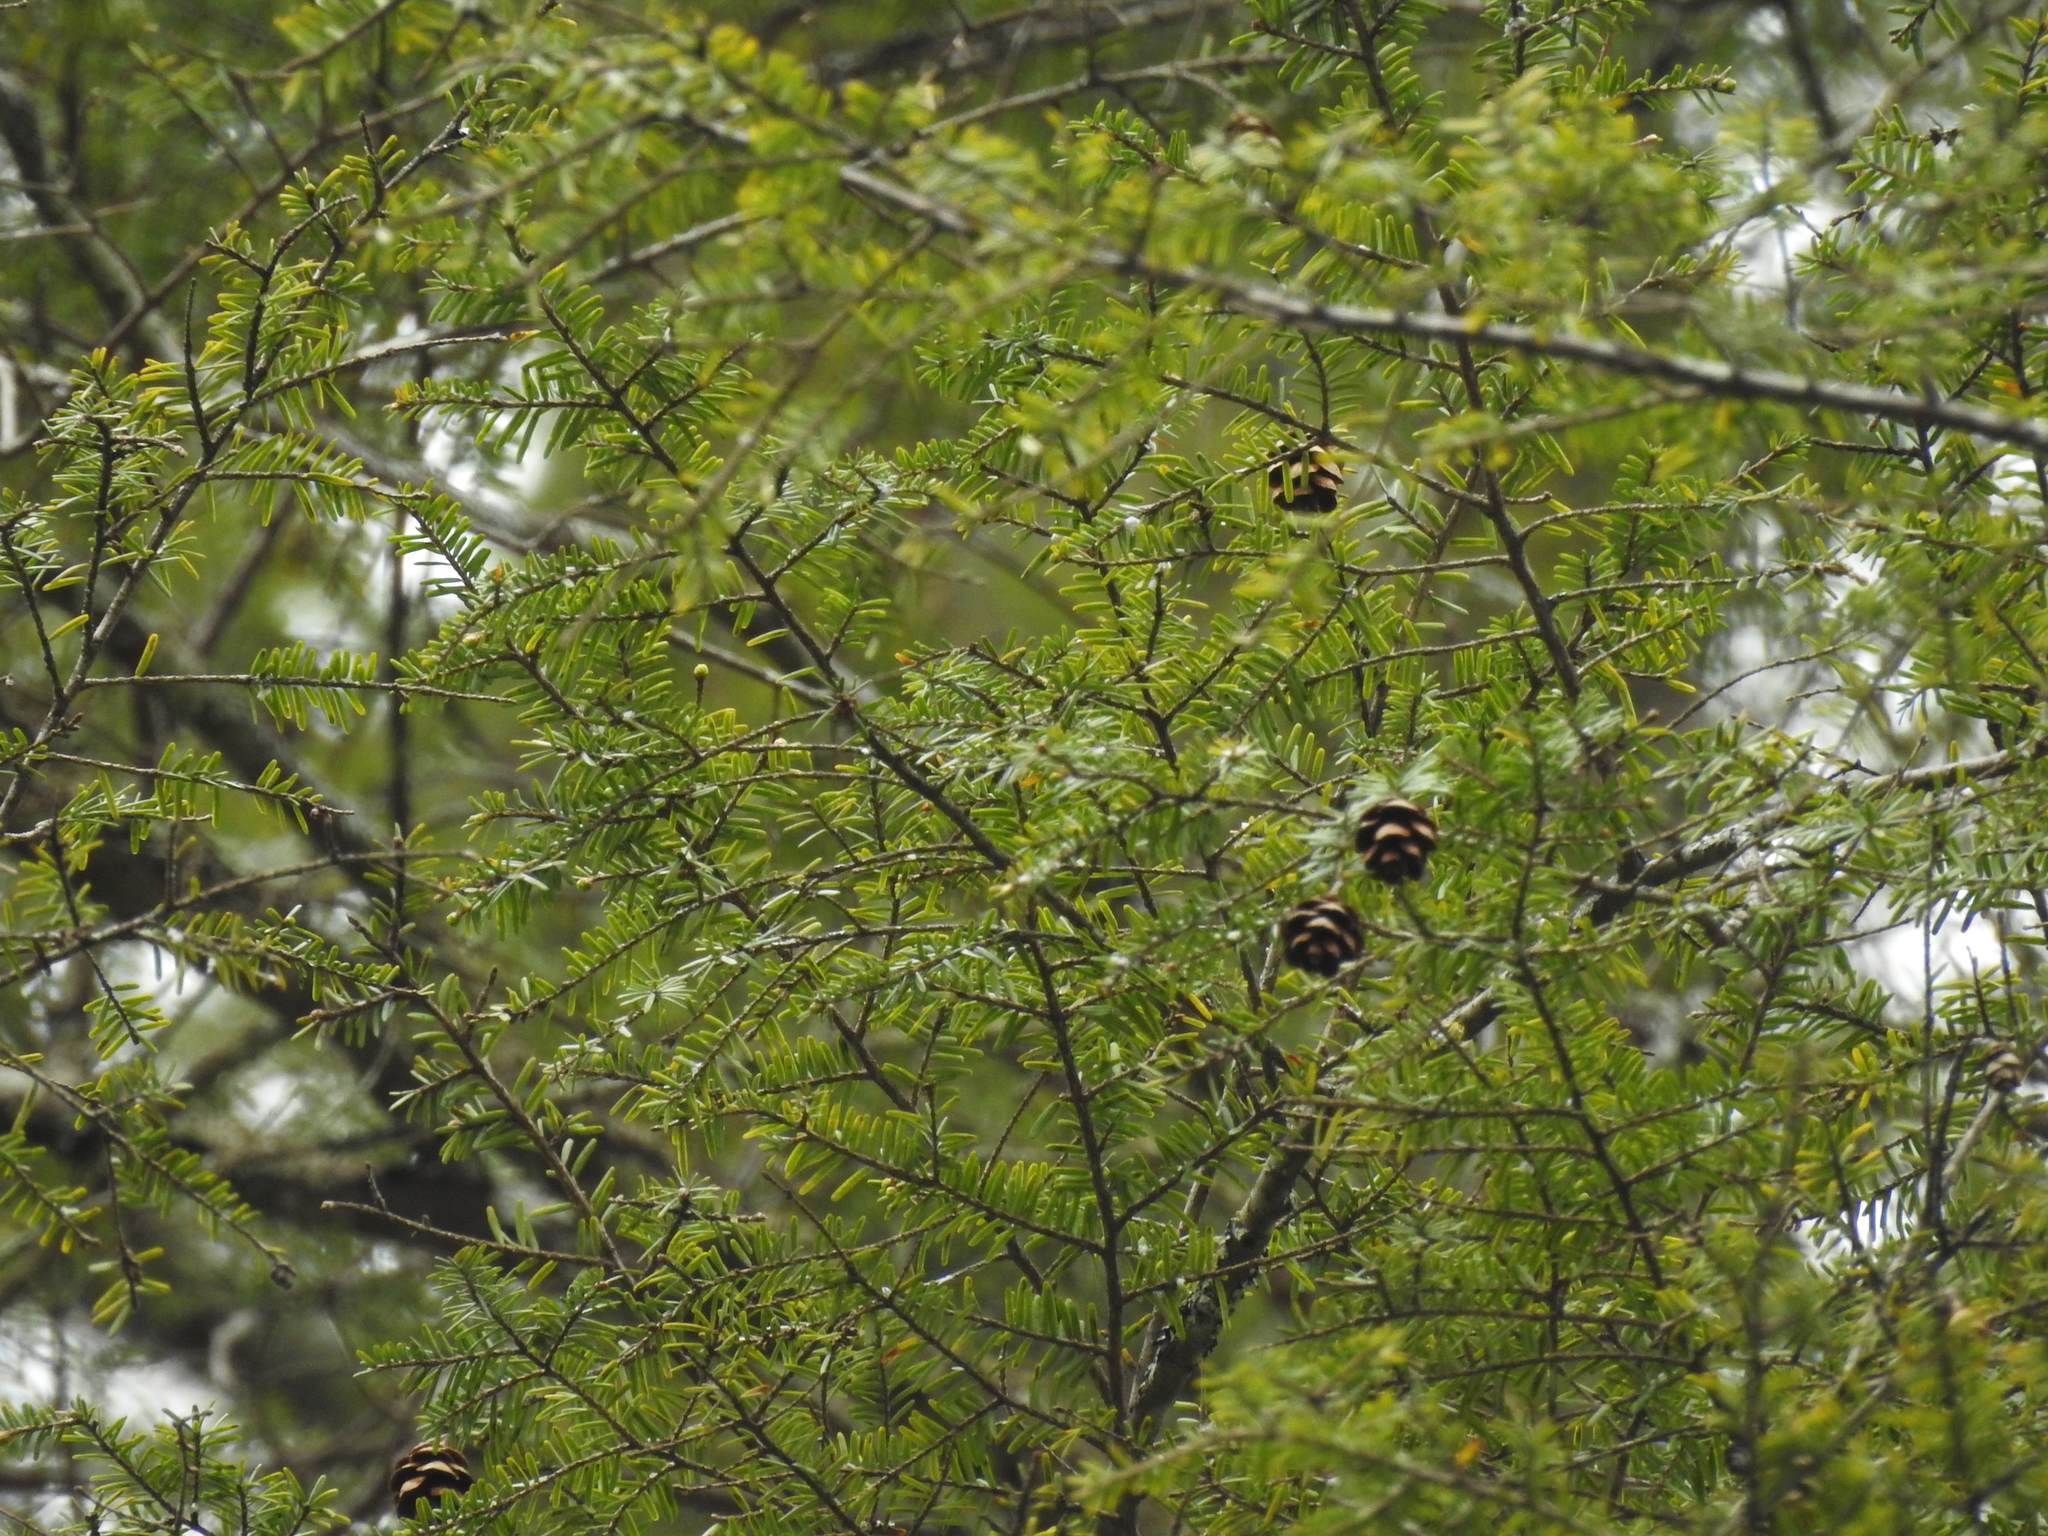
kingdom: Plantae
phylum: Tracheophyta
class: Pinopsida
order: Pinales
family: Pinaceae
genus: Tsuga
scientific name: Tsuga canadensis
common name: Eastern hemlock
